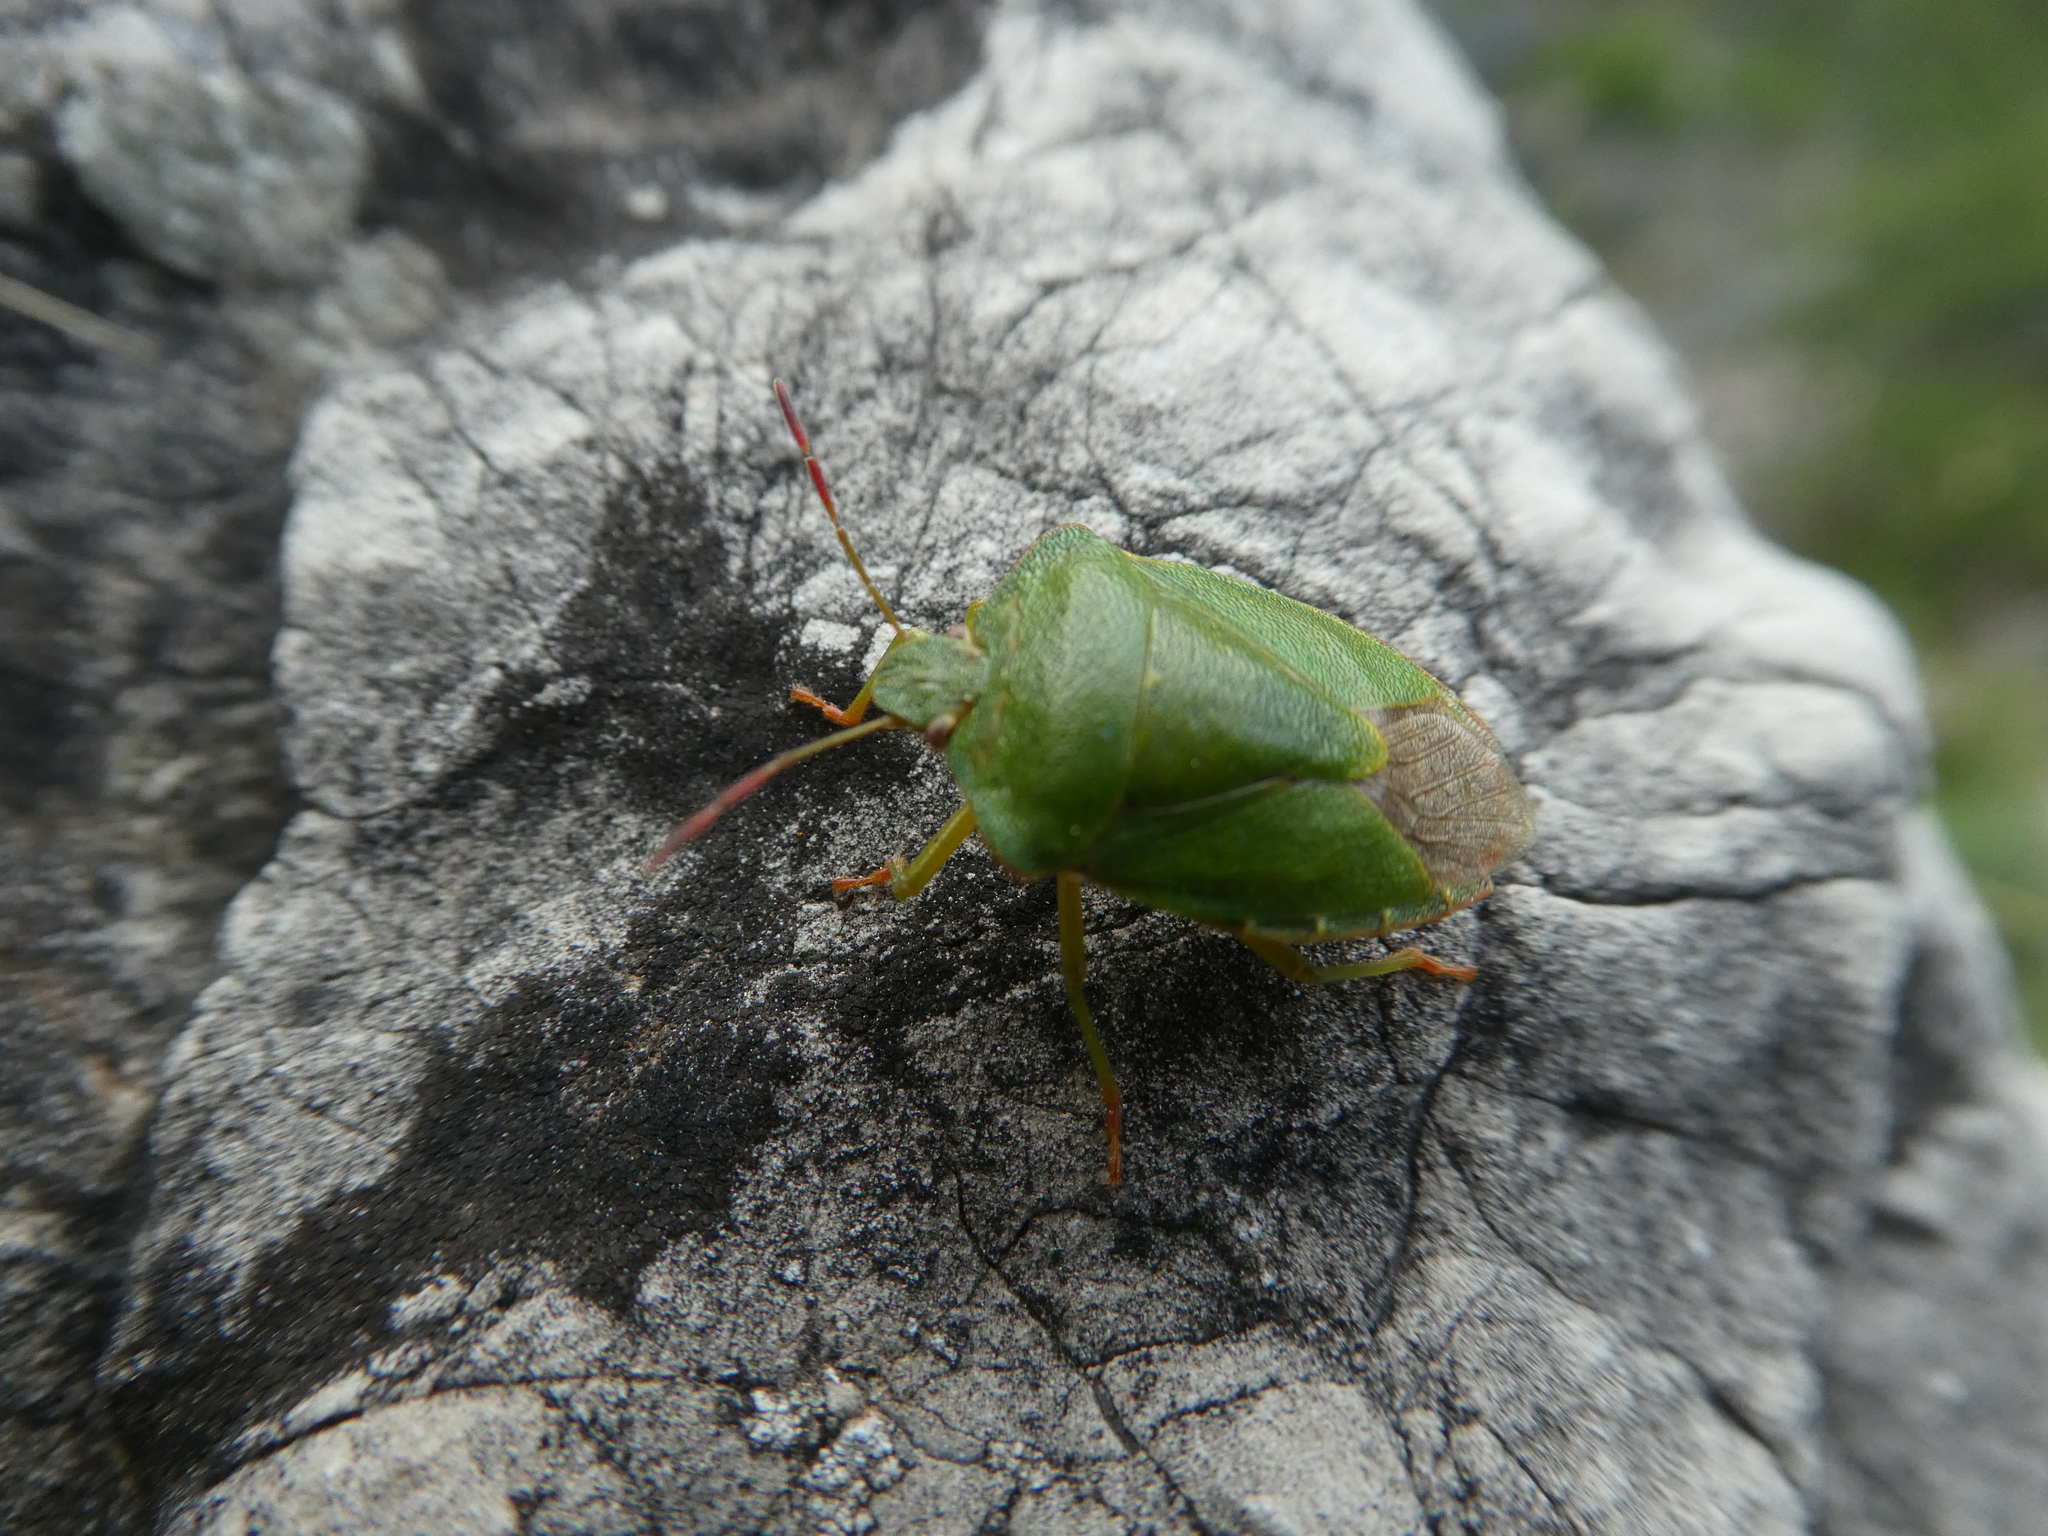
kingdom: Animalia
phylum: Arthropoda
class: Insecta
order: Hemiptera
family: Pentatomidae
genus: Palomena
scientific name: Palomena prasina
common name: Green shieldbug
